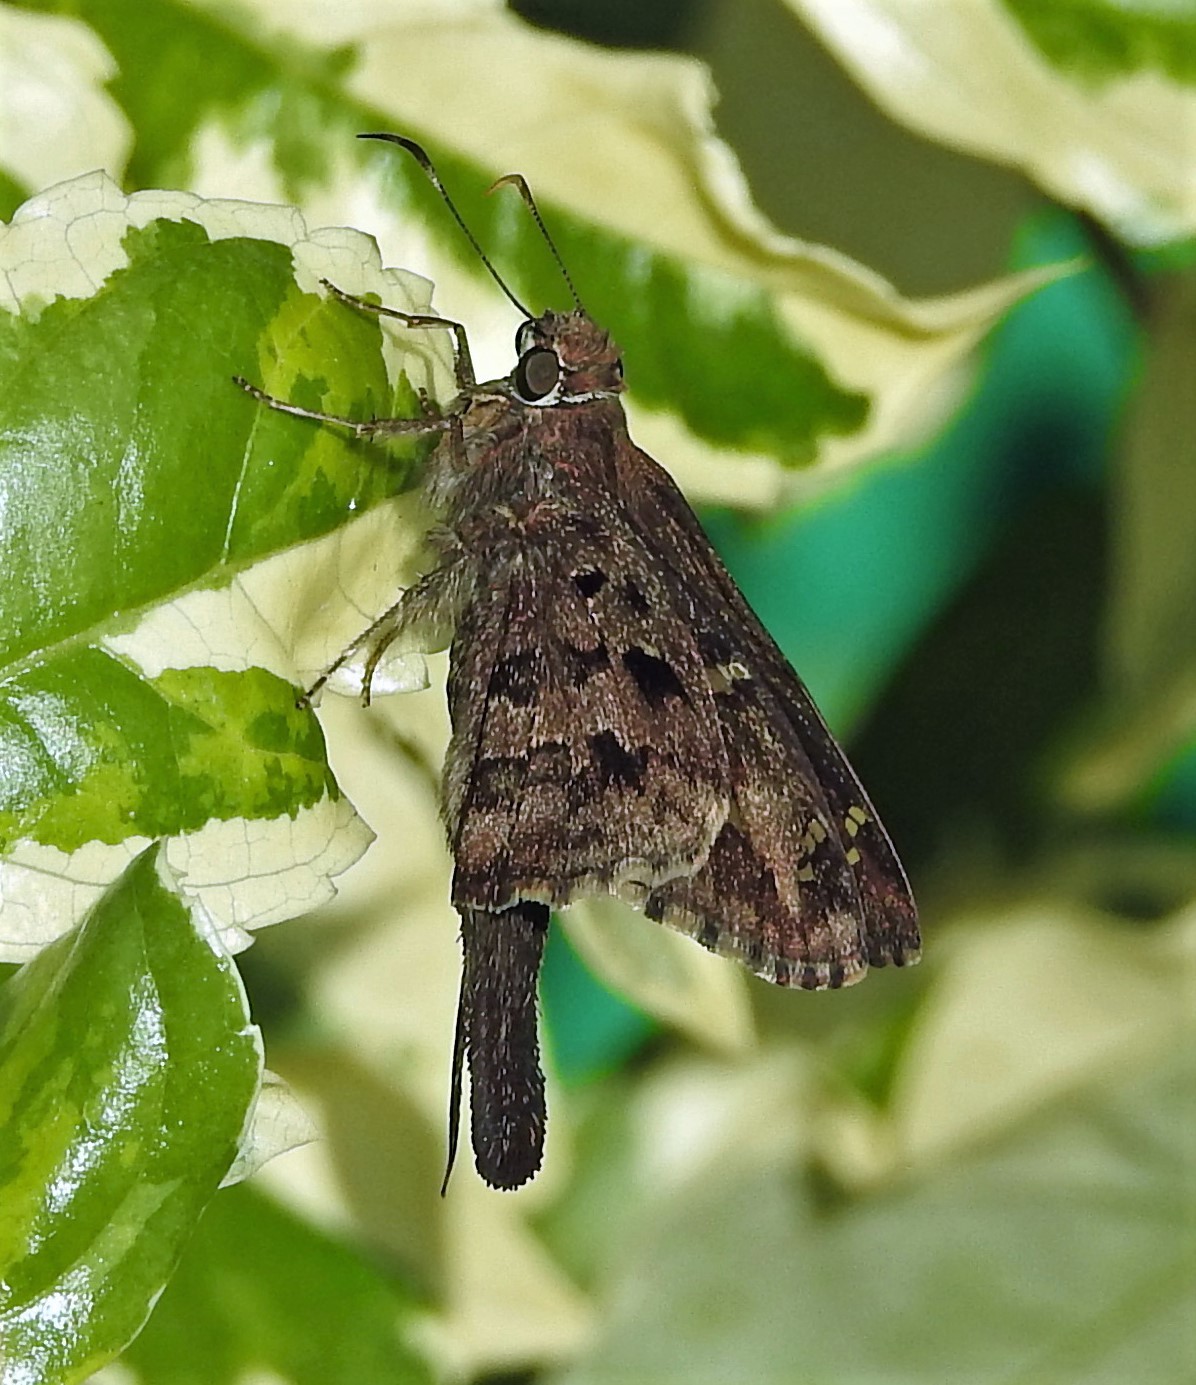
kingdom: Animalia
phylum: Arthropoda
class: Insecta
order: Lepidoptera
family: Hesperiidae
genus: Thorybes
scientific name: Thorybes
